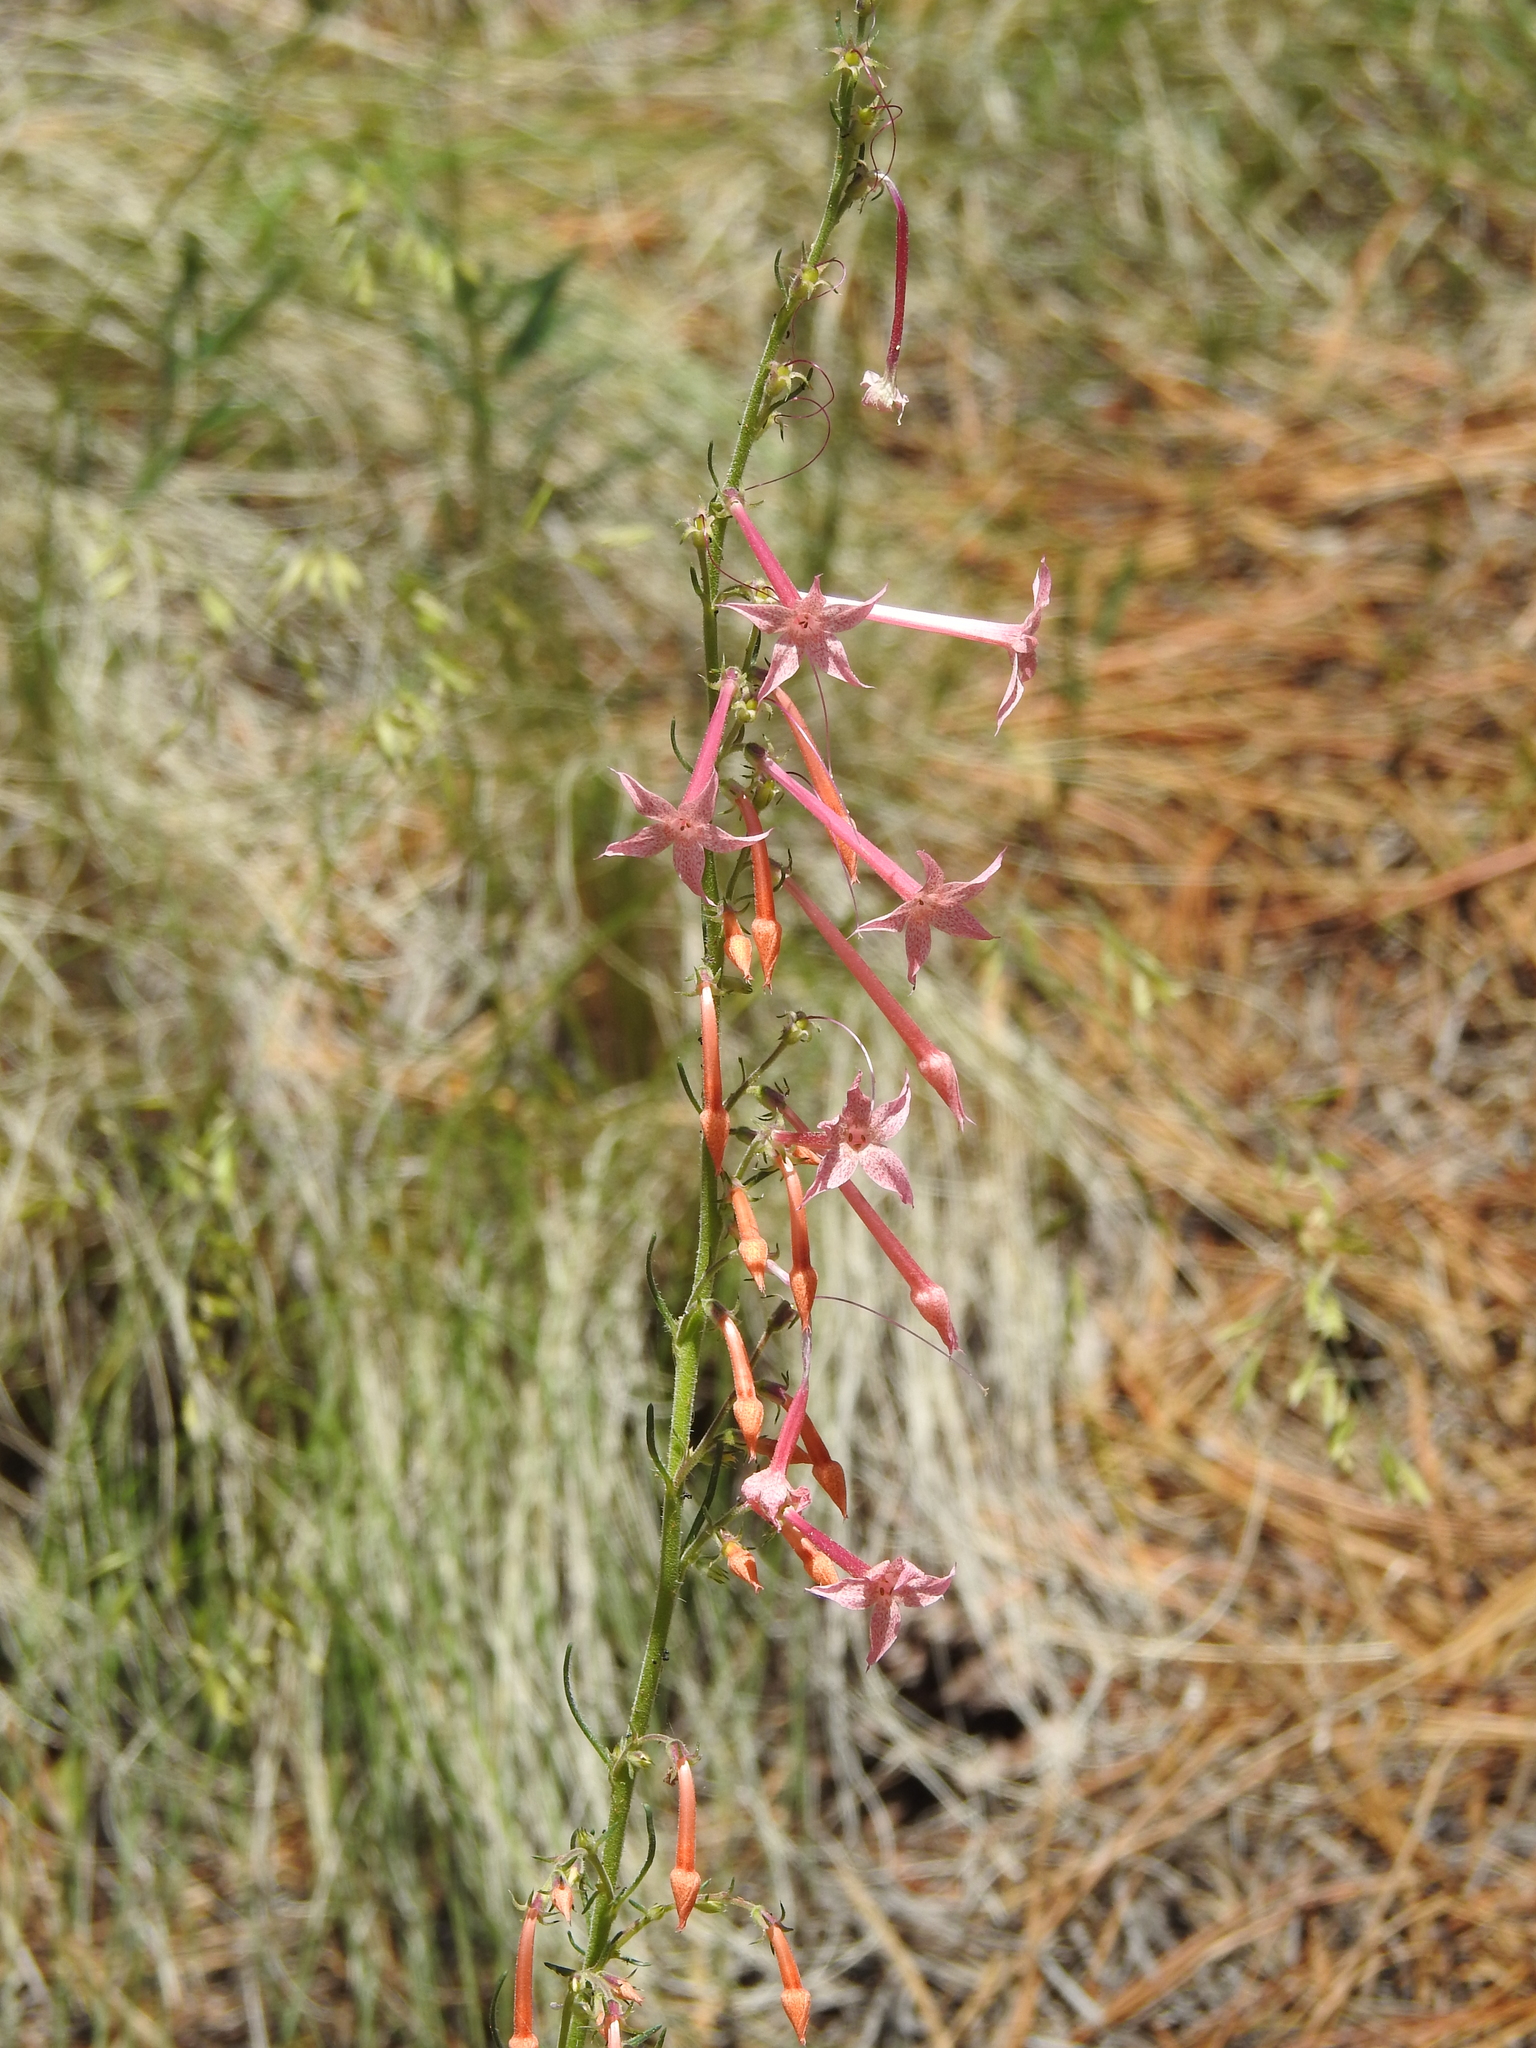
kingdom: Plantae
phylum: Tracheophyta
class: Magnoliopsida
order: Ericales
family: Polemoniaceae
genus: Ipomopsis
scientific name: Ipomopsis tenuituba
